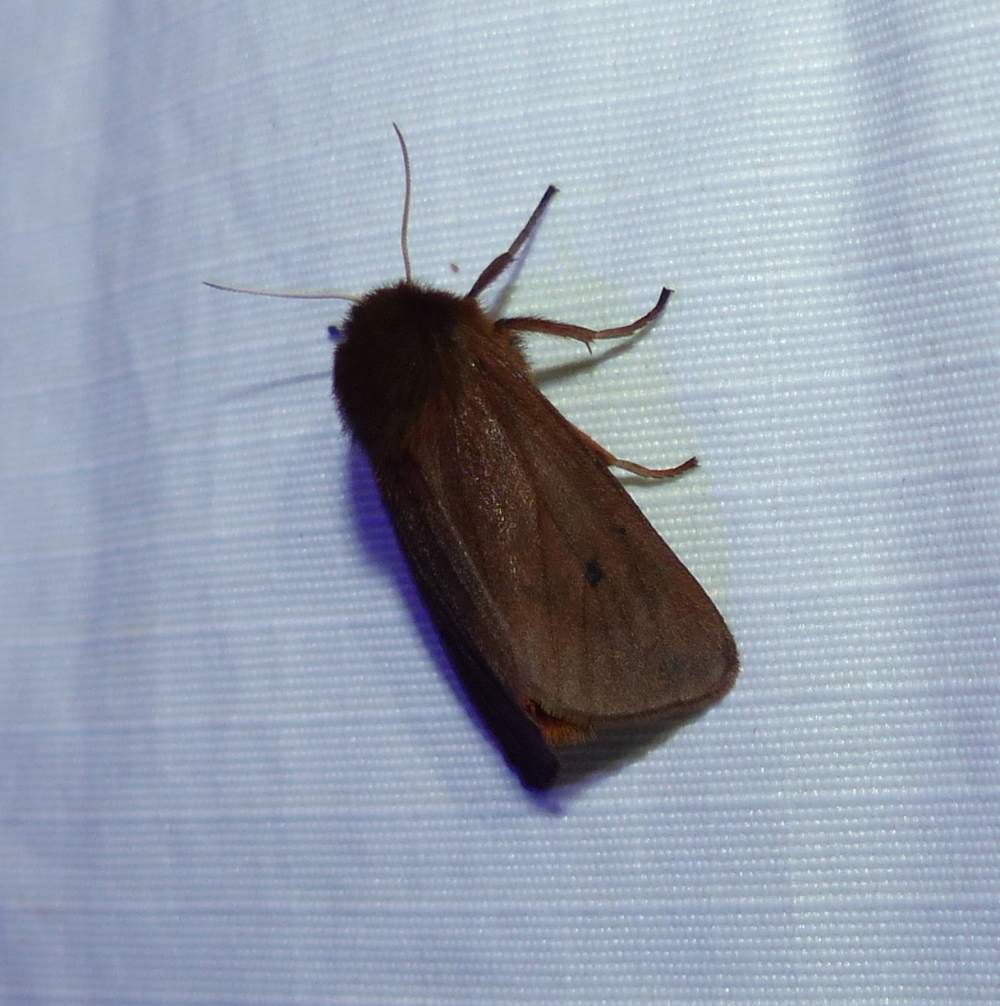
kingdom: Animalia
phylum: Arthropoda
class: Insecta
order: Lepidoptera
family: Erebidae
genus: Phragmatobia
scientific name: Phragmatobia fuliginosa
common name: Ruby tiger
